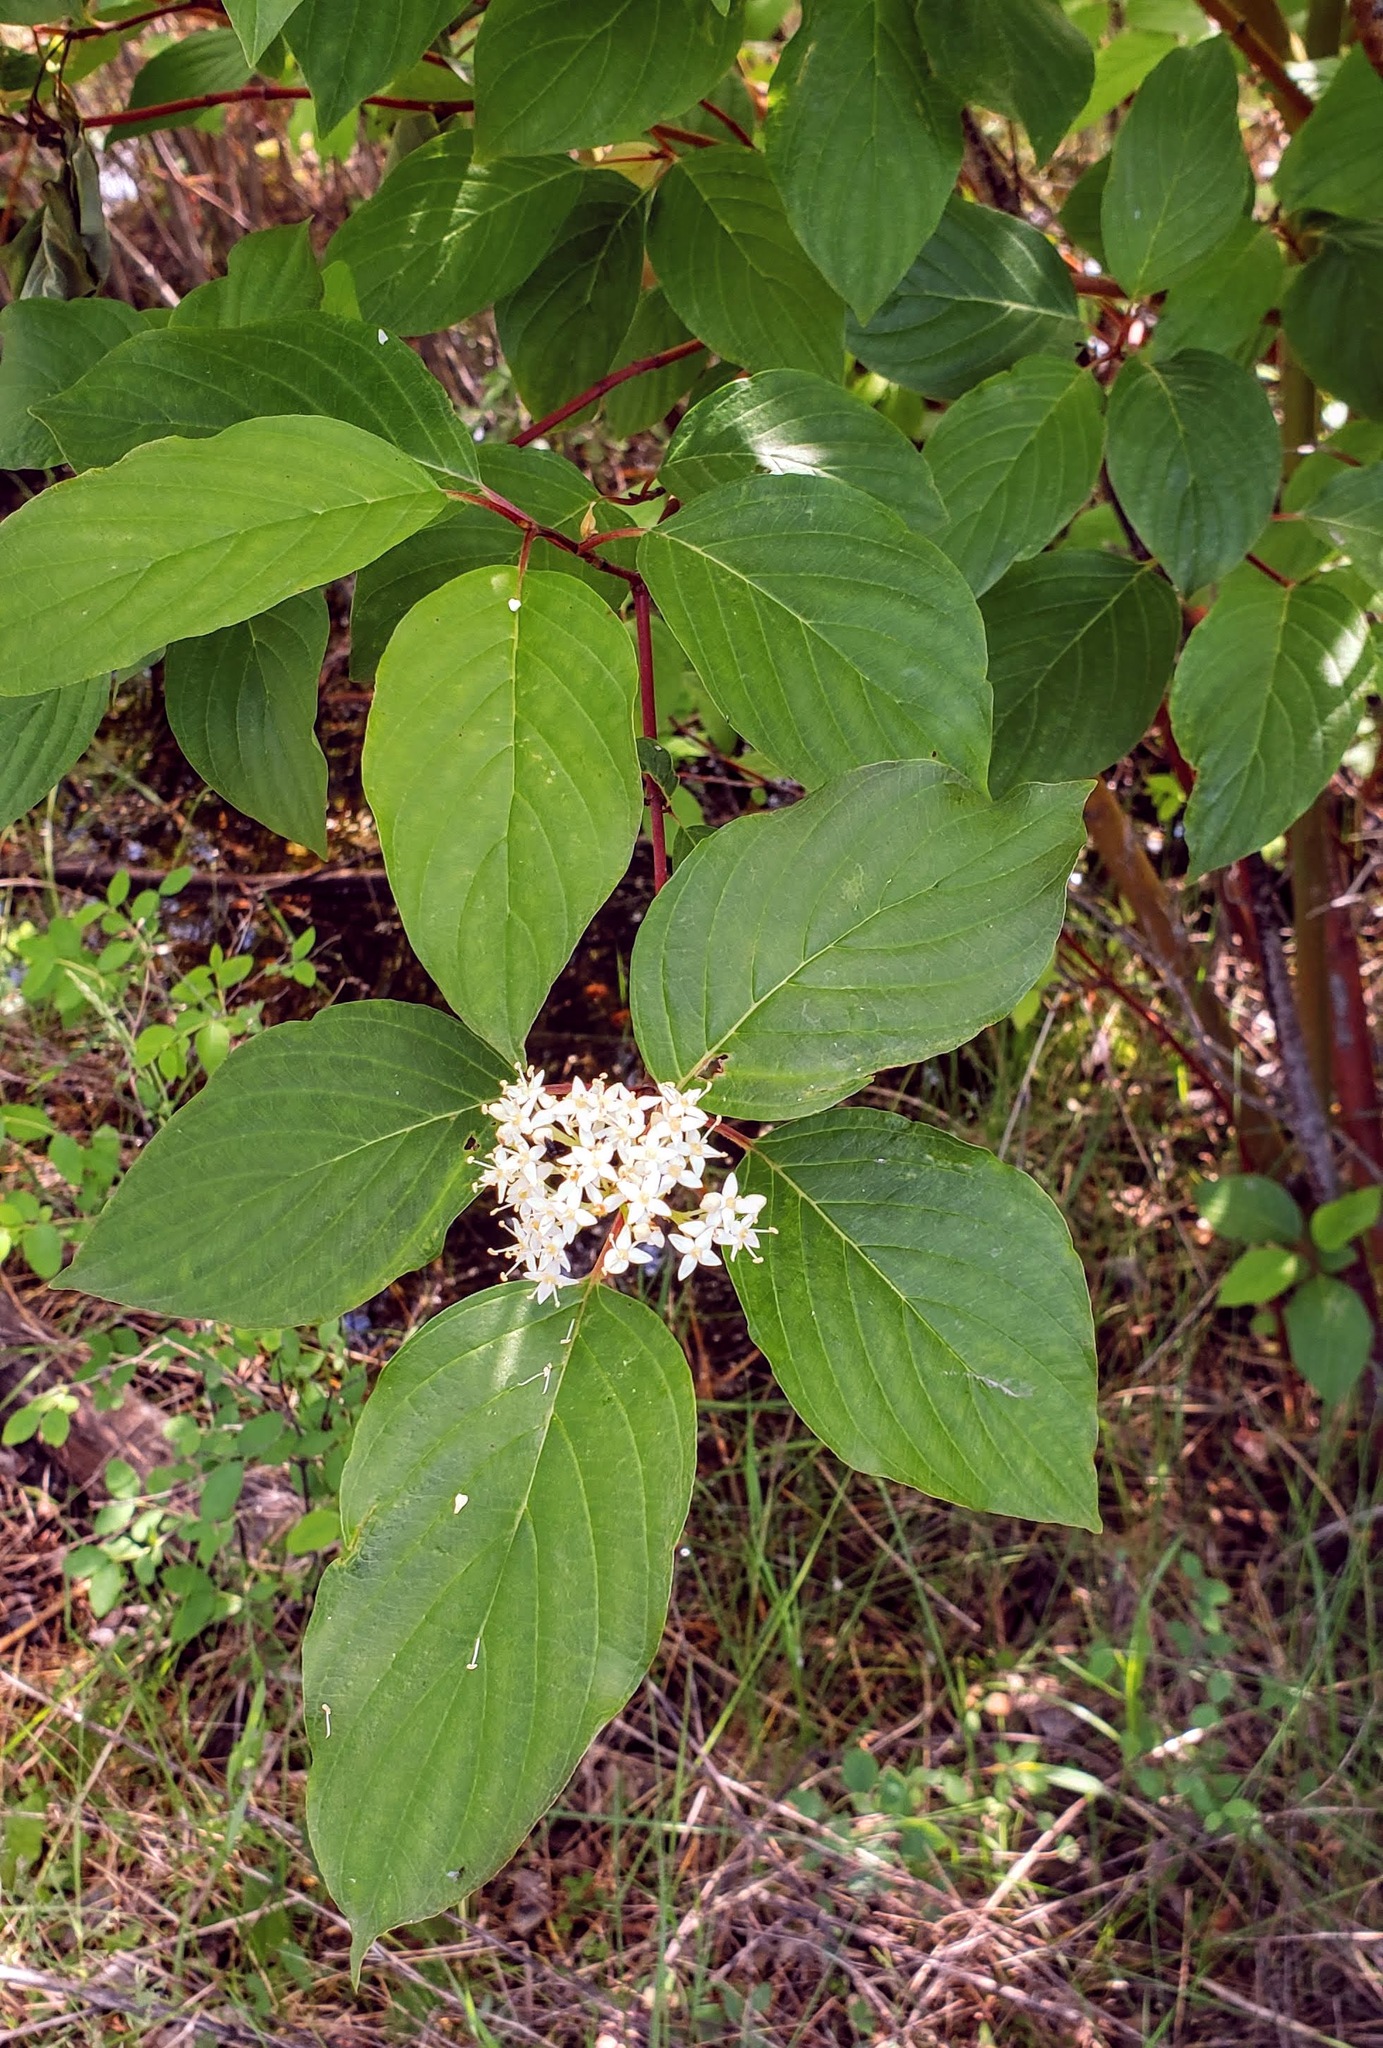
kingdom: Plantae
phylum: Tracheophyta
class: Magnoliopsida
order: Cornales
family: Cornaceae
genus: Cornus
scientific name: Cornus sericea
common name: Red-osier dogwood
